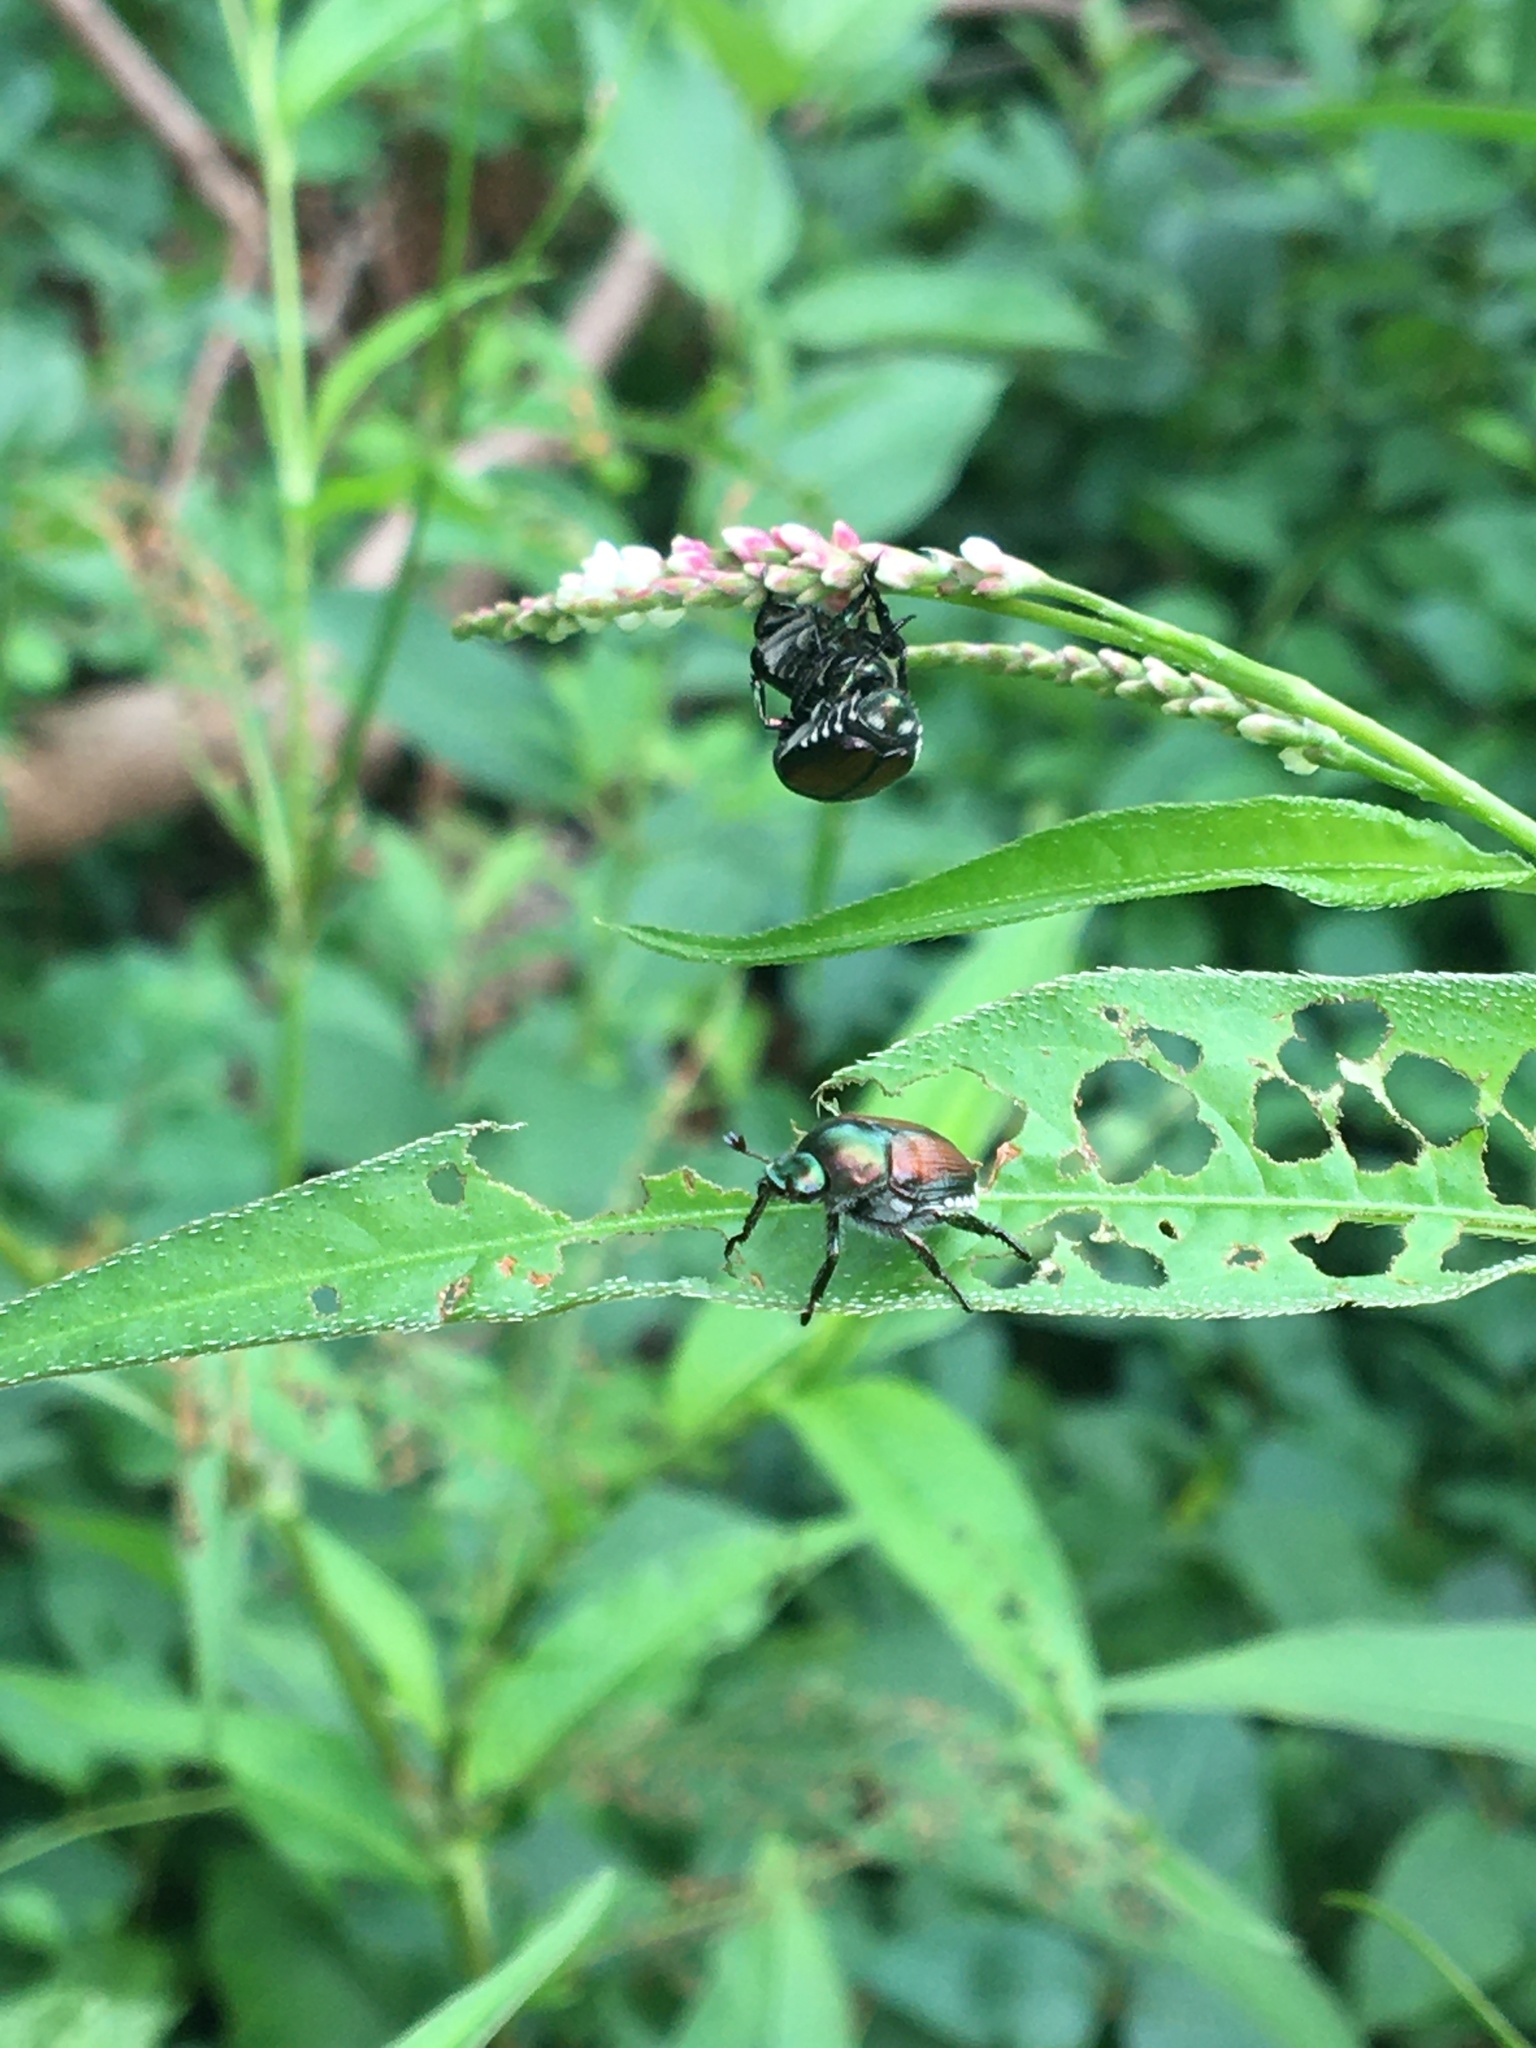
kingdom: Animalia
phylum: Arthropoda
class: Insecta
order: Coleoptera
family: Scarabaeidae
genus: Popillia
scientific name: Popillia japonica
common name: Japanese beetle
